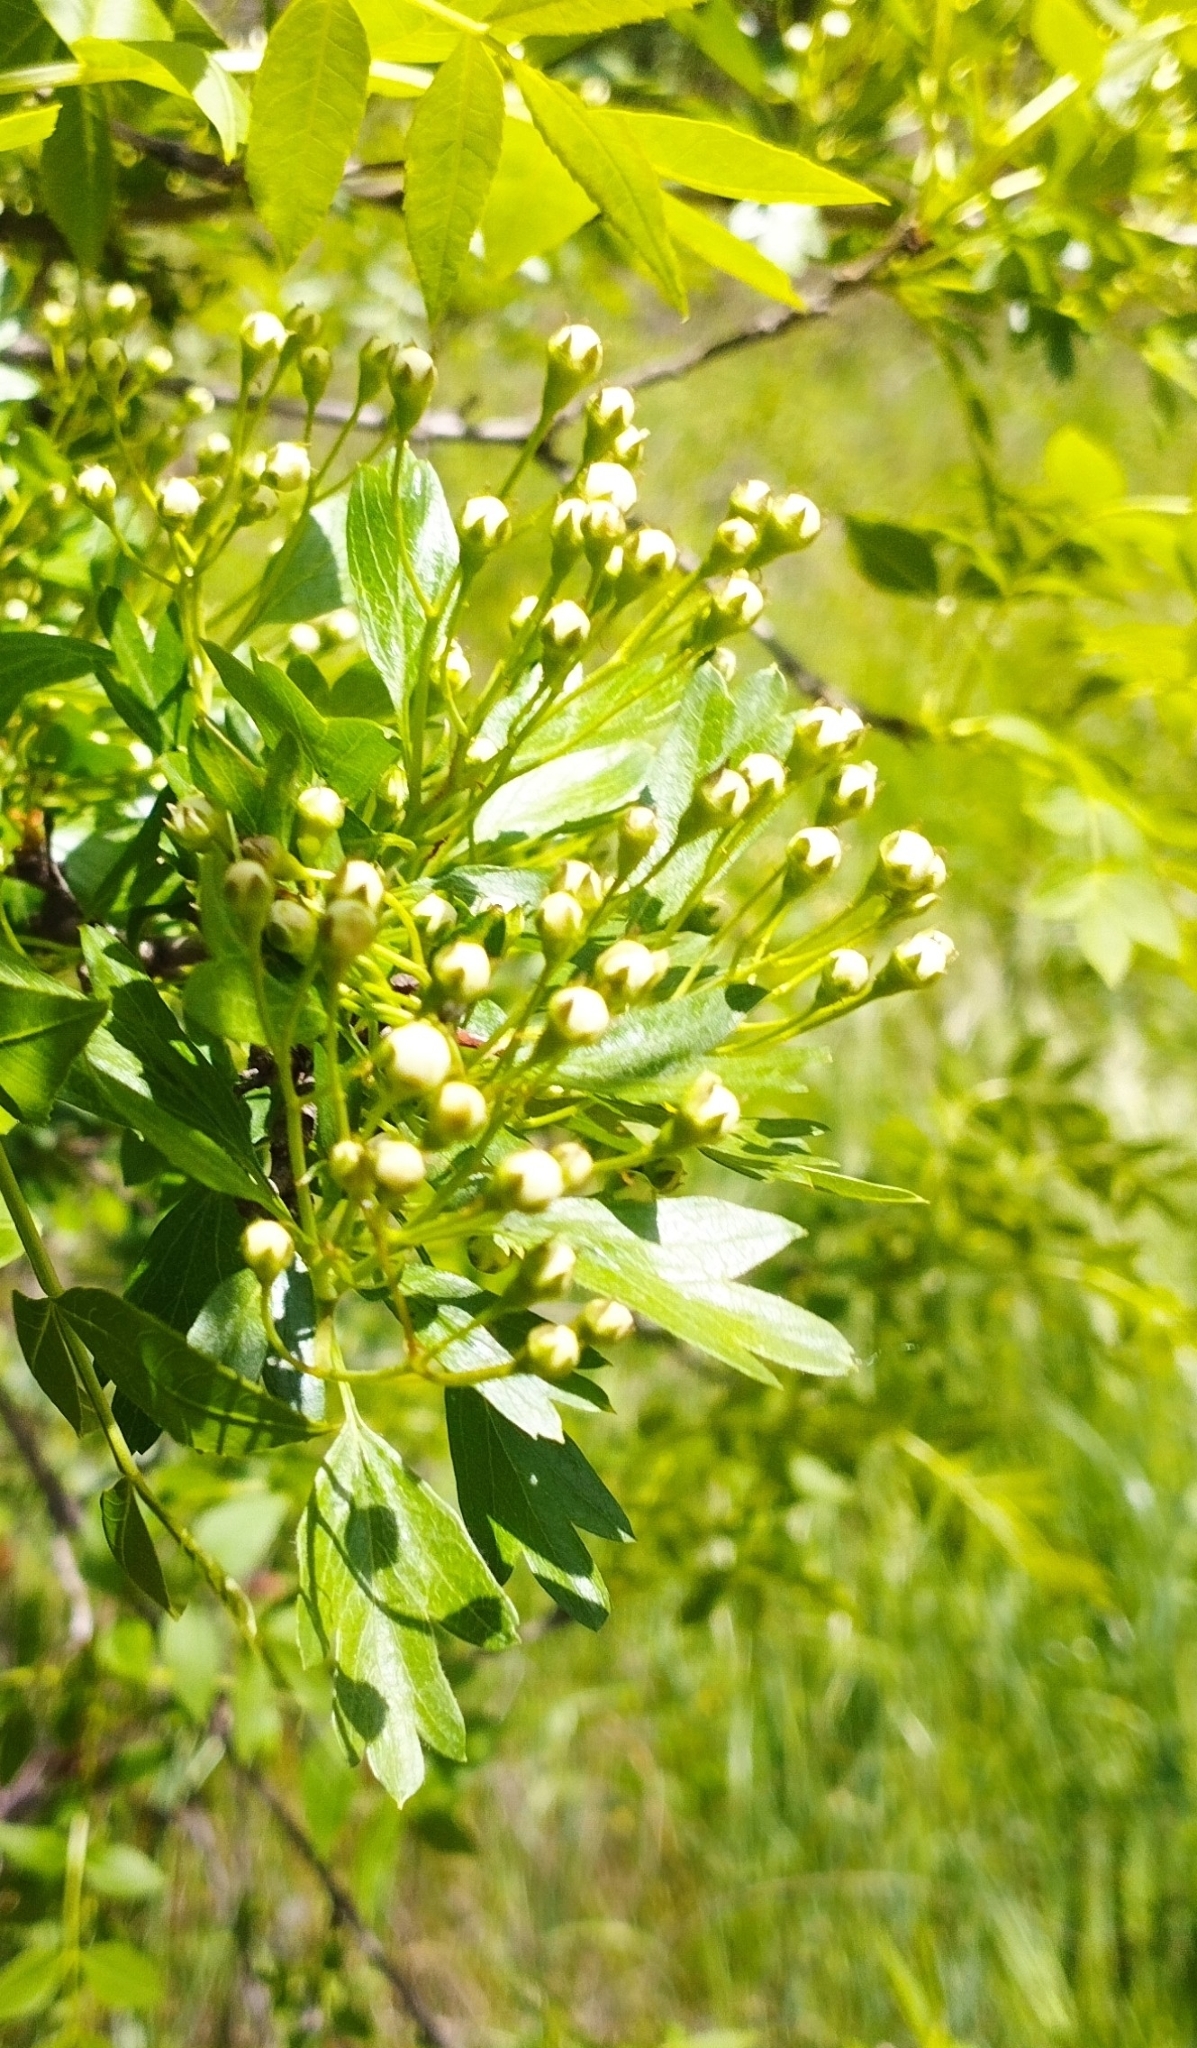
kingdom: Plantae
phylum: Tracheophyta
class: Magnoliopsida
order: Rosales
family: Rosaceae
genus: Crataegus
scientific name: Crataegus monogyna
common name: Hawthorn
